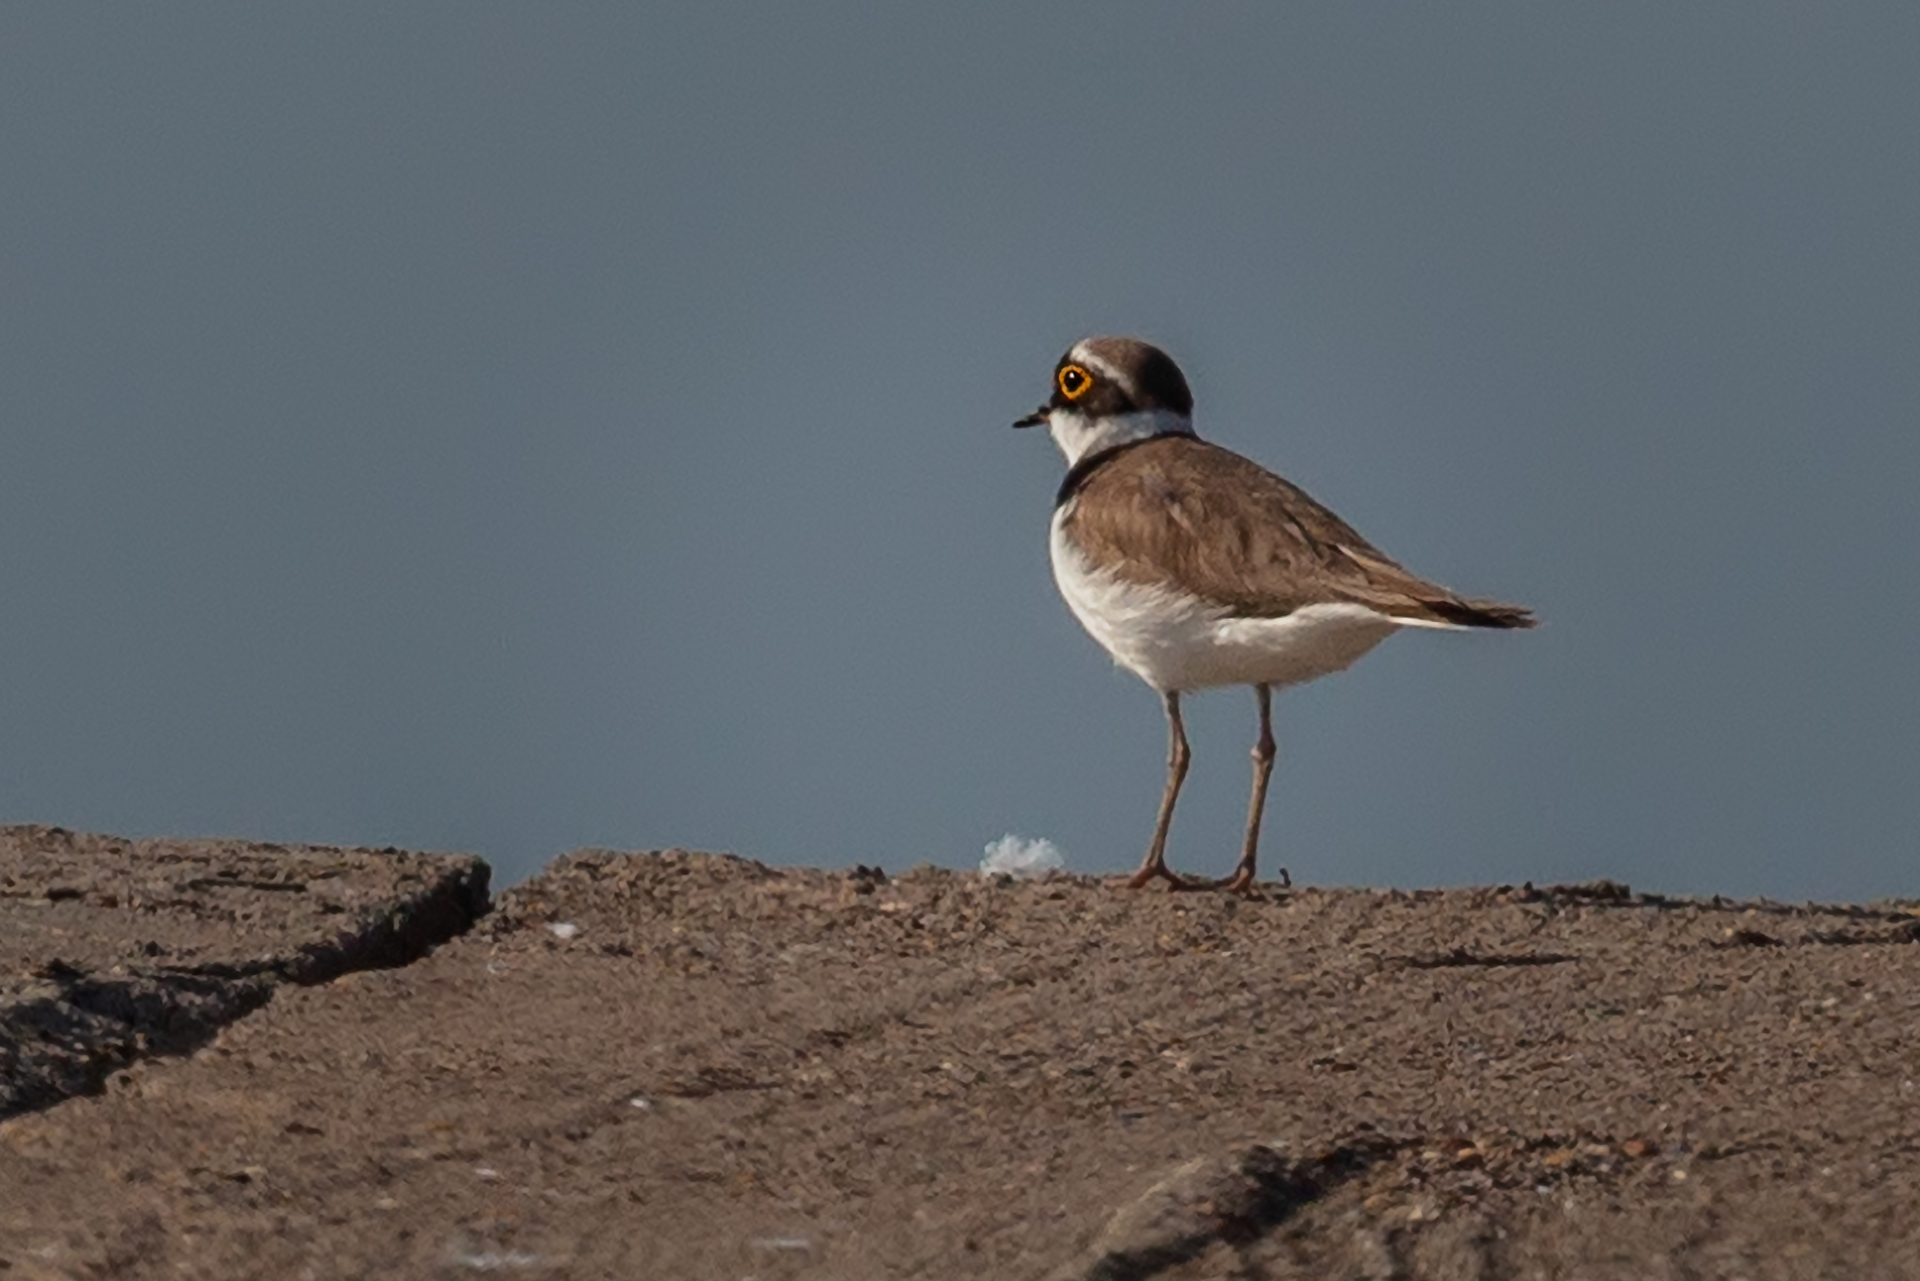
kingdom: Animalia
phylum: Chordata
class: Aves
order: Charadriiformes
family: Charadriidae
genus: Charadrius
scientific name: Charadrius dubius
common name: Little ringed plover
